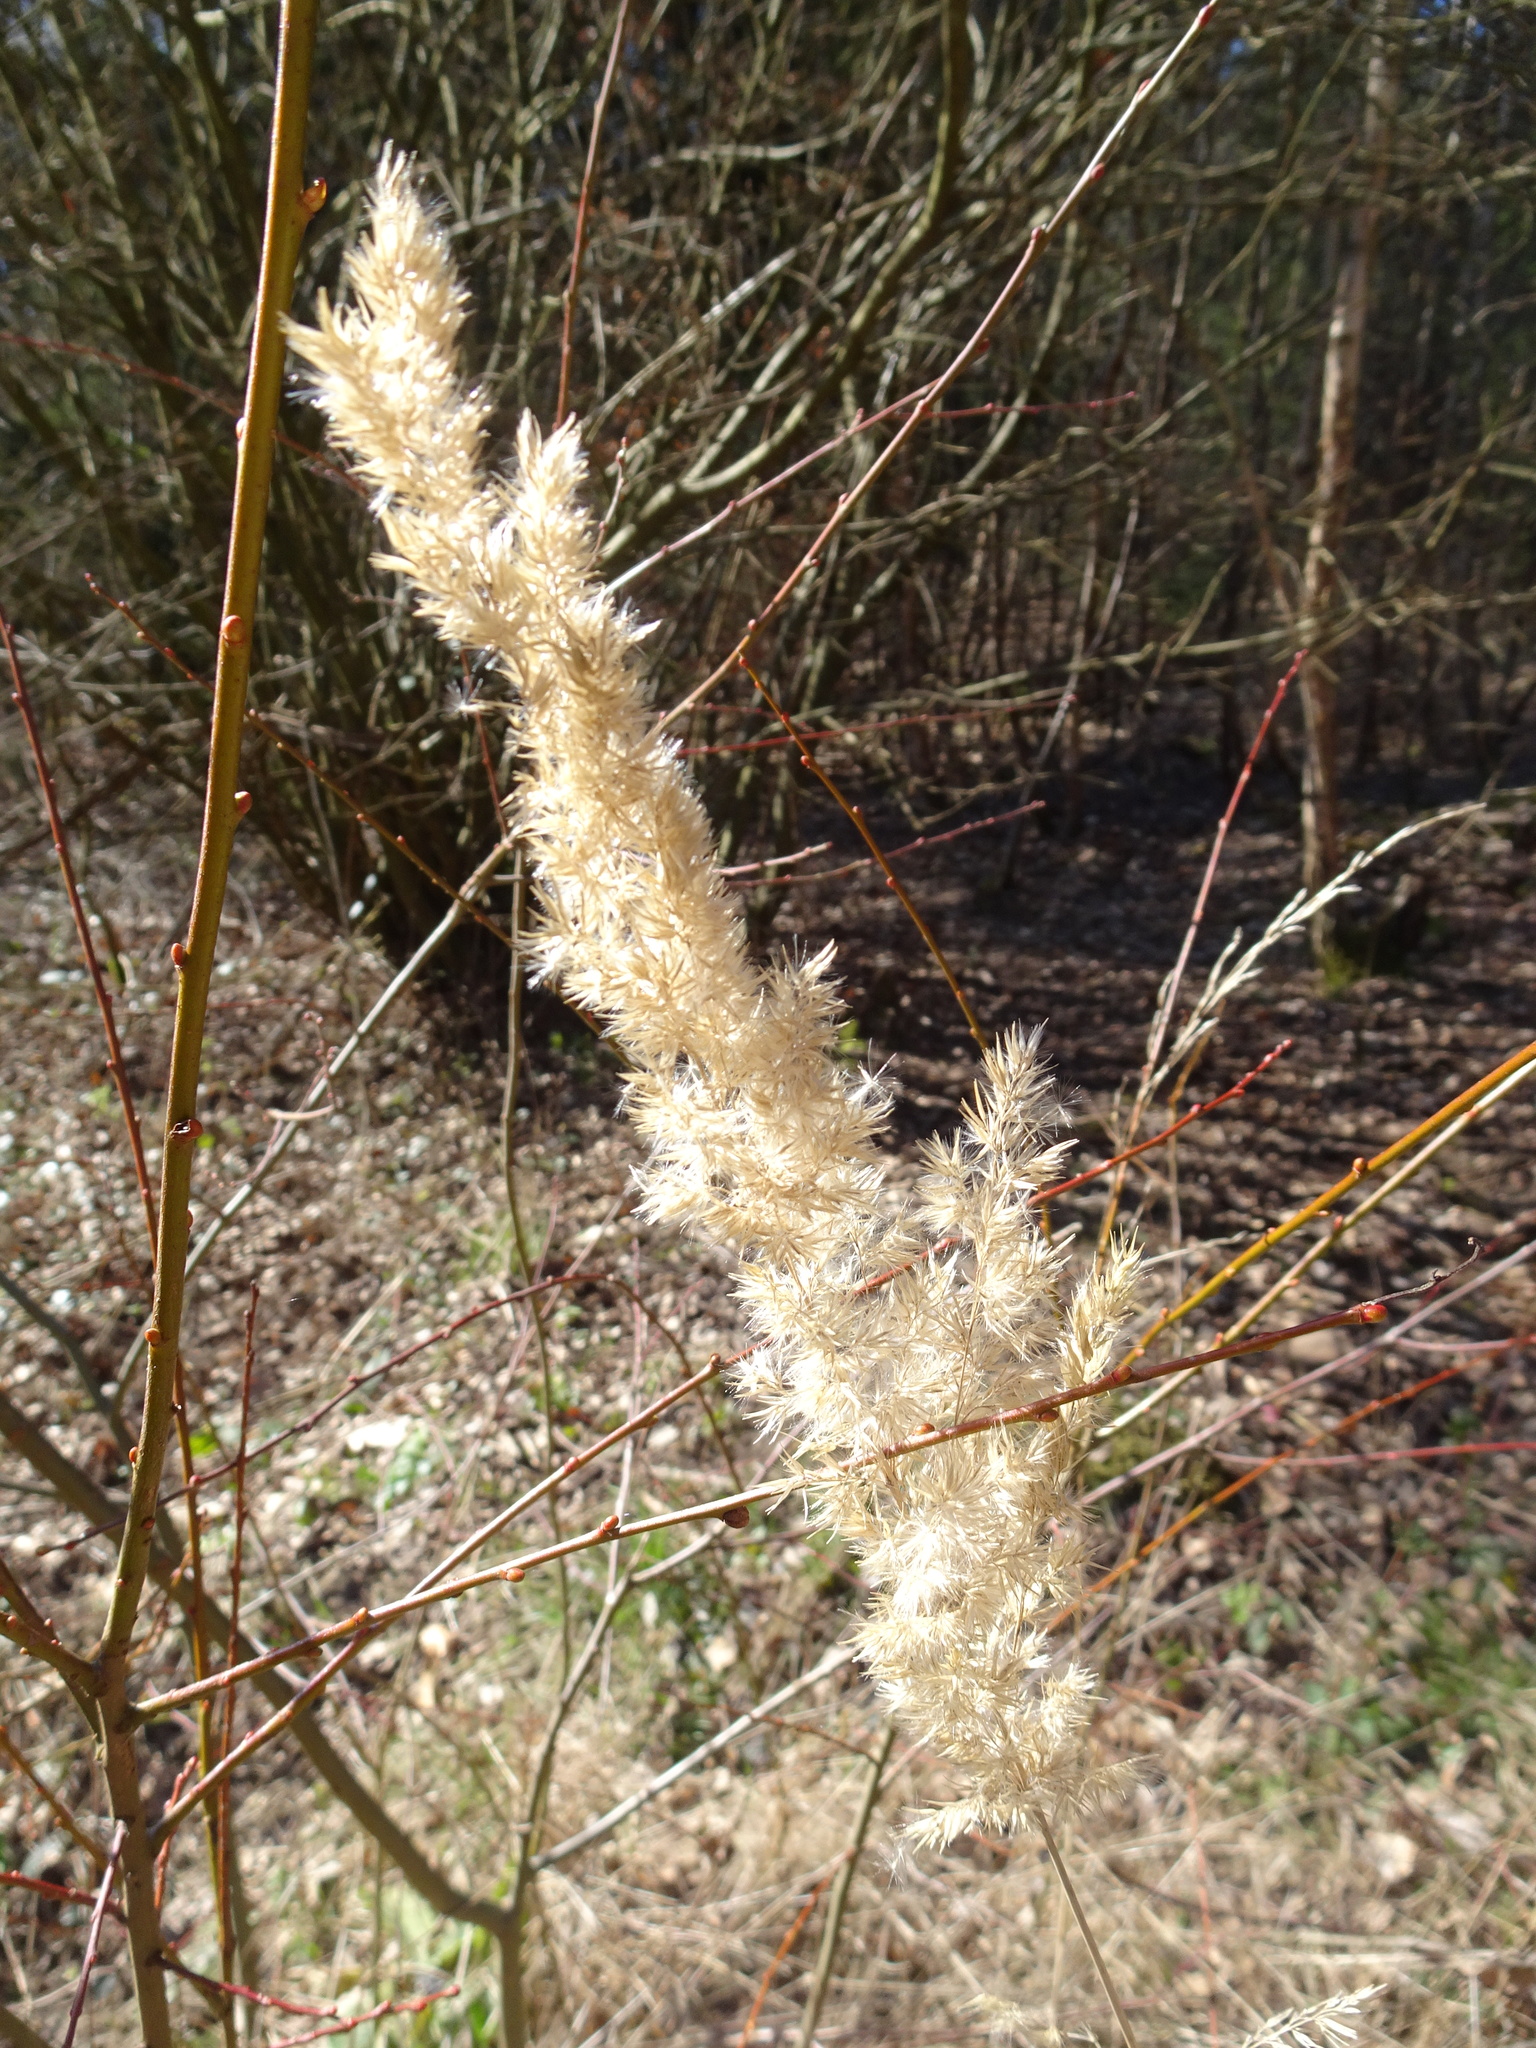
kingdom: Plantae
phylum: Tracheophyta
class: Liliopsida
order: Poales
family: Poaceae
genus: Calamagrostis
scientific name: Calamagrostis epigejos
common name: Wood small-reed
